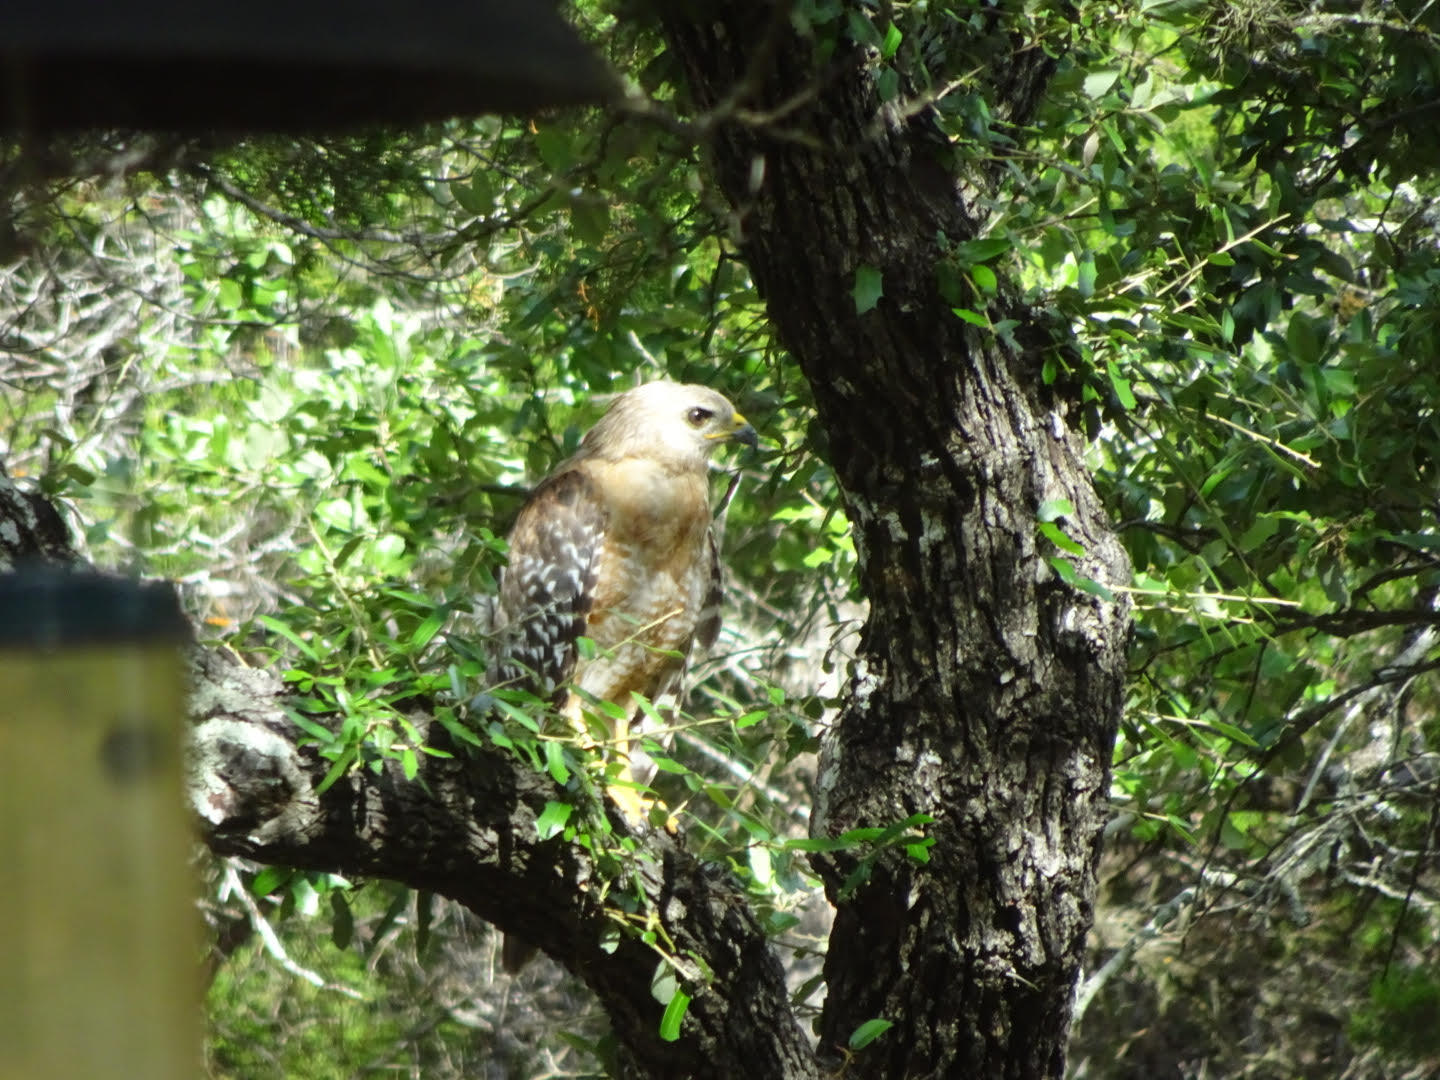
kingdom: Animalia
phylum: Chordata
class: Aves
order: Accipitriformes
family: Accipitridae
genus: Buteo
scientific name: Buteo lineatus
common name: Red-shouldered hawk
